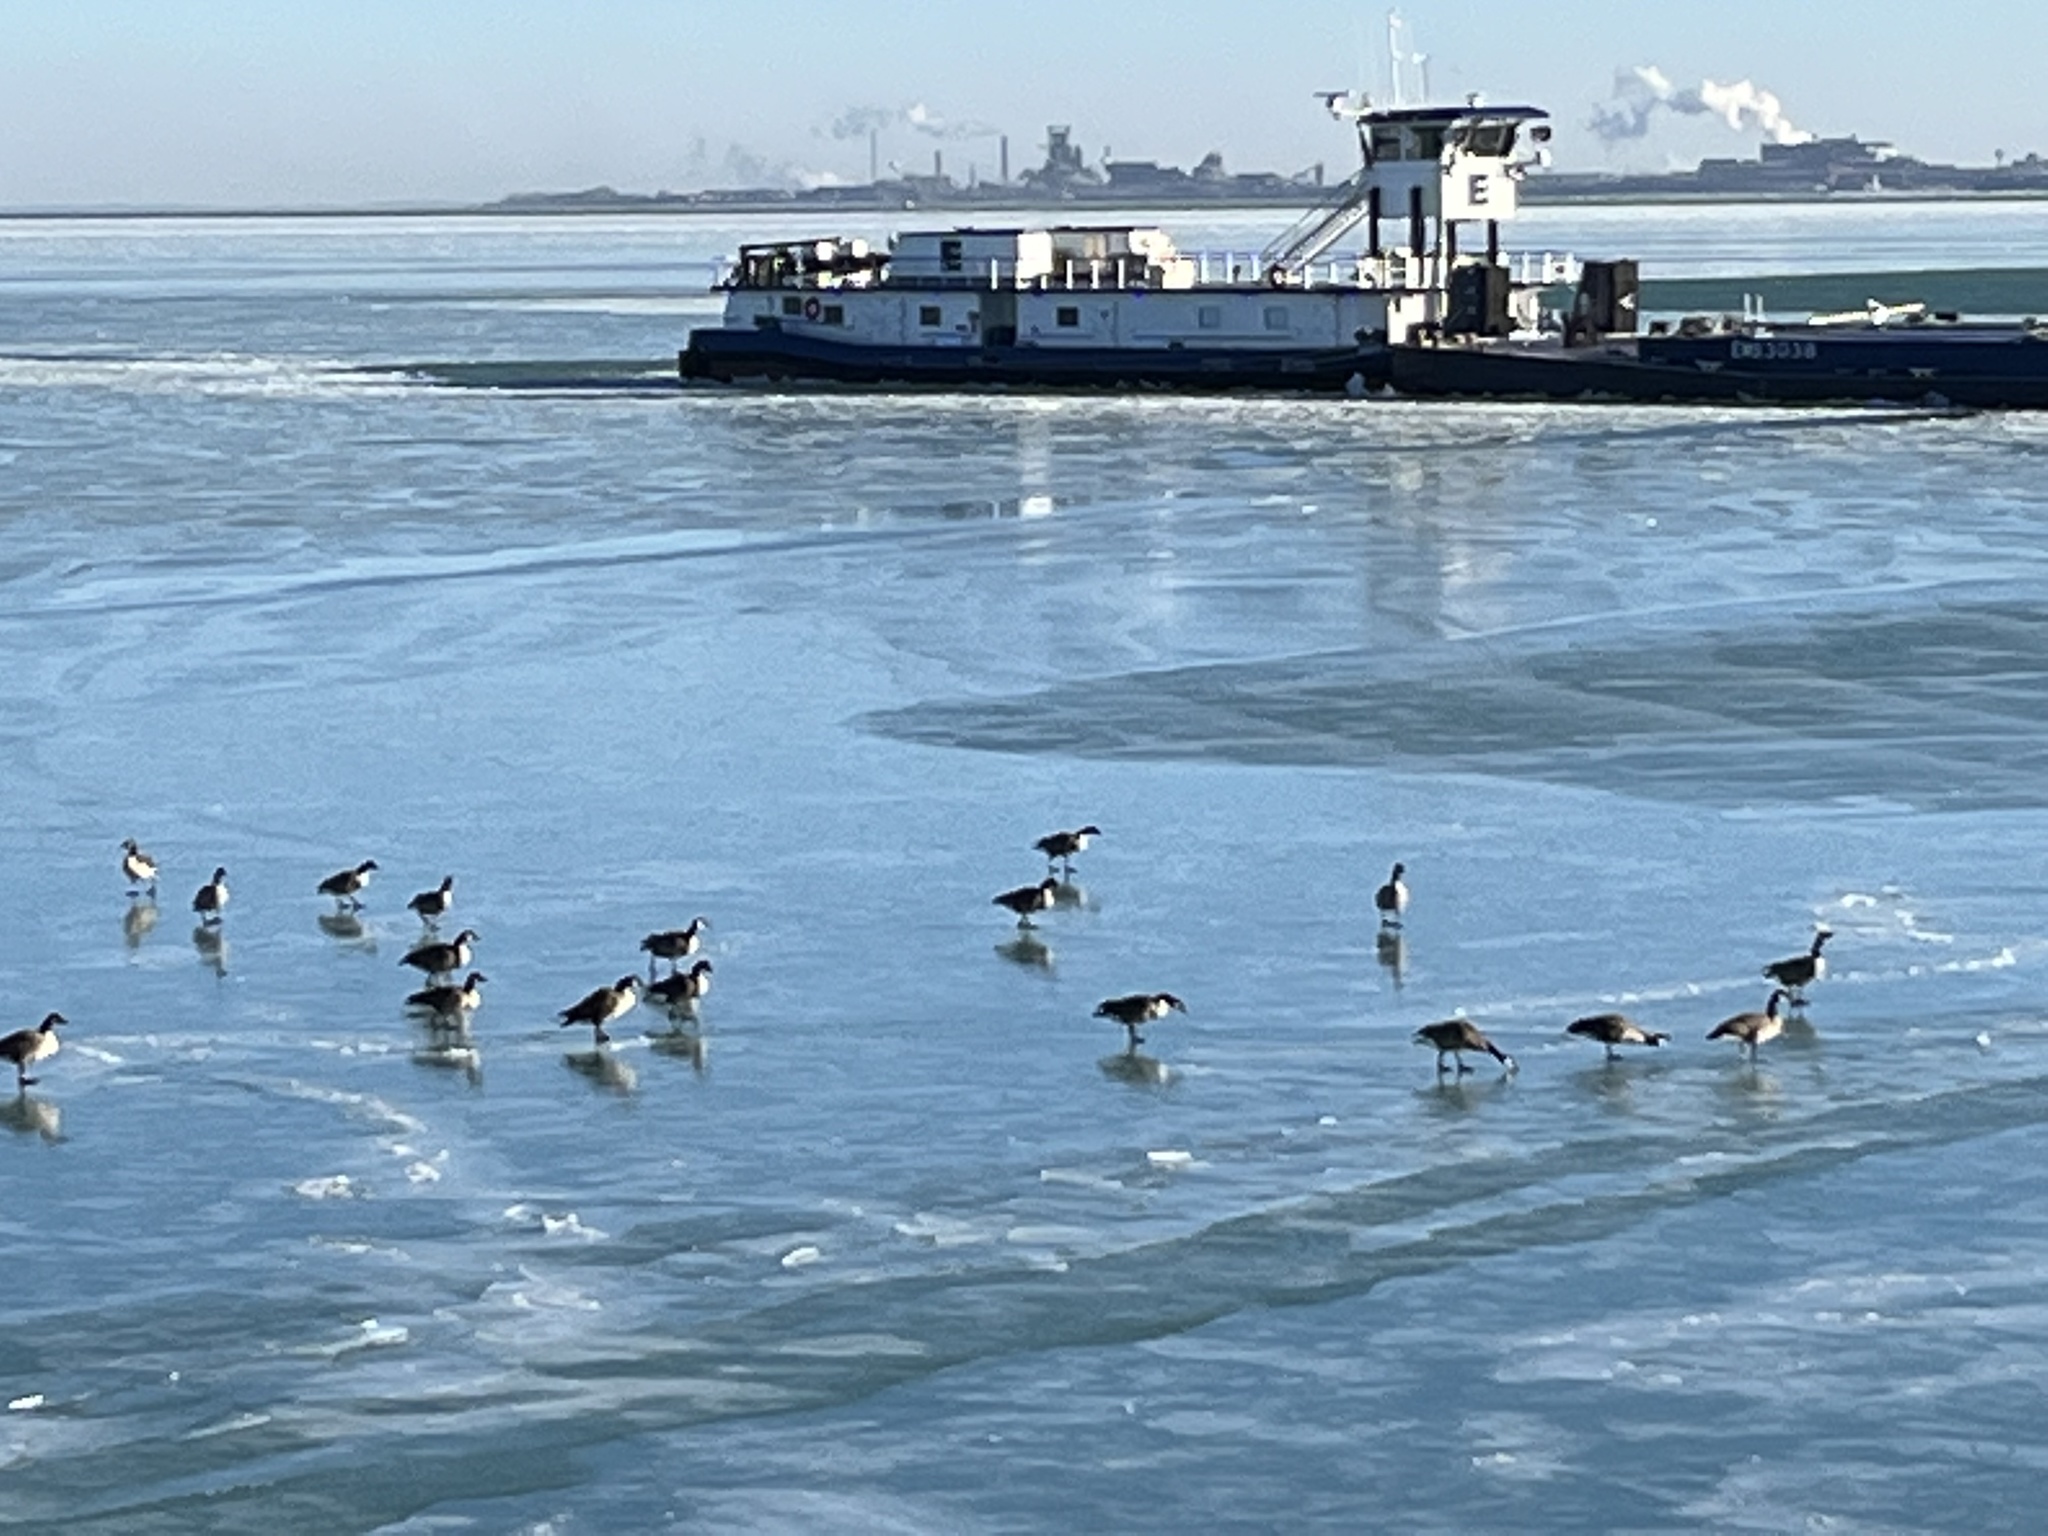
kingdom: Animalia
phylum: Chordata
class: Aves
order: Anseriformes
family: Anatidae
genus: Branta
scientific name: Branta canadensis
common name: Canada goose
